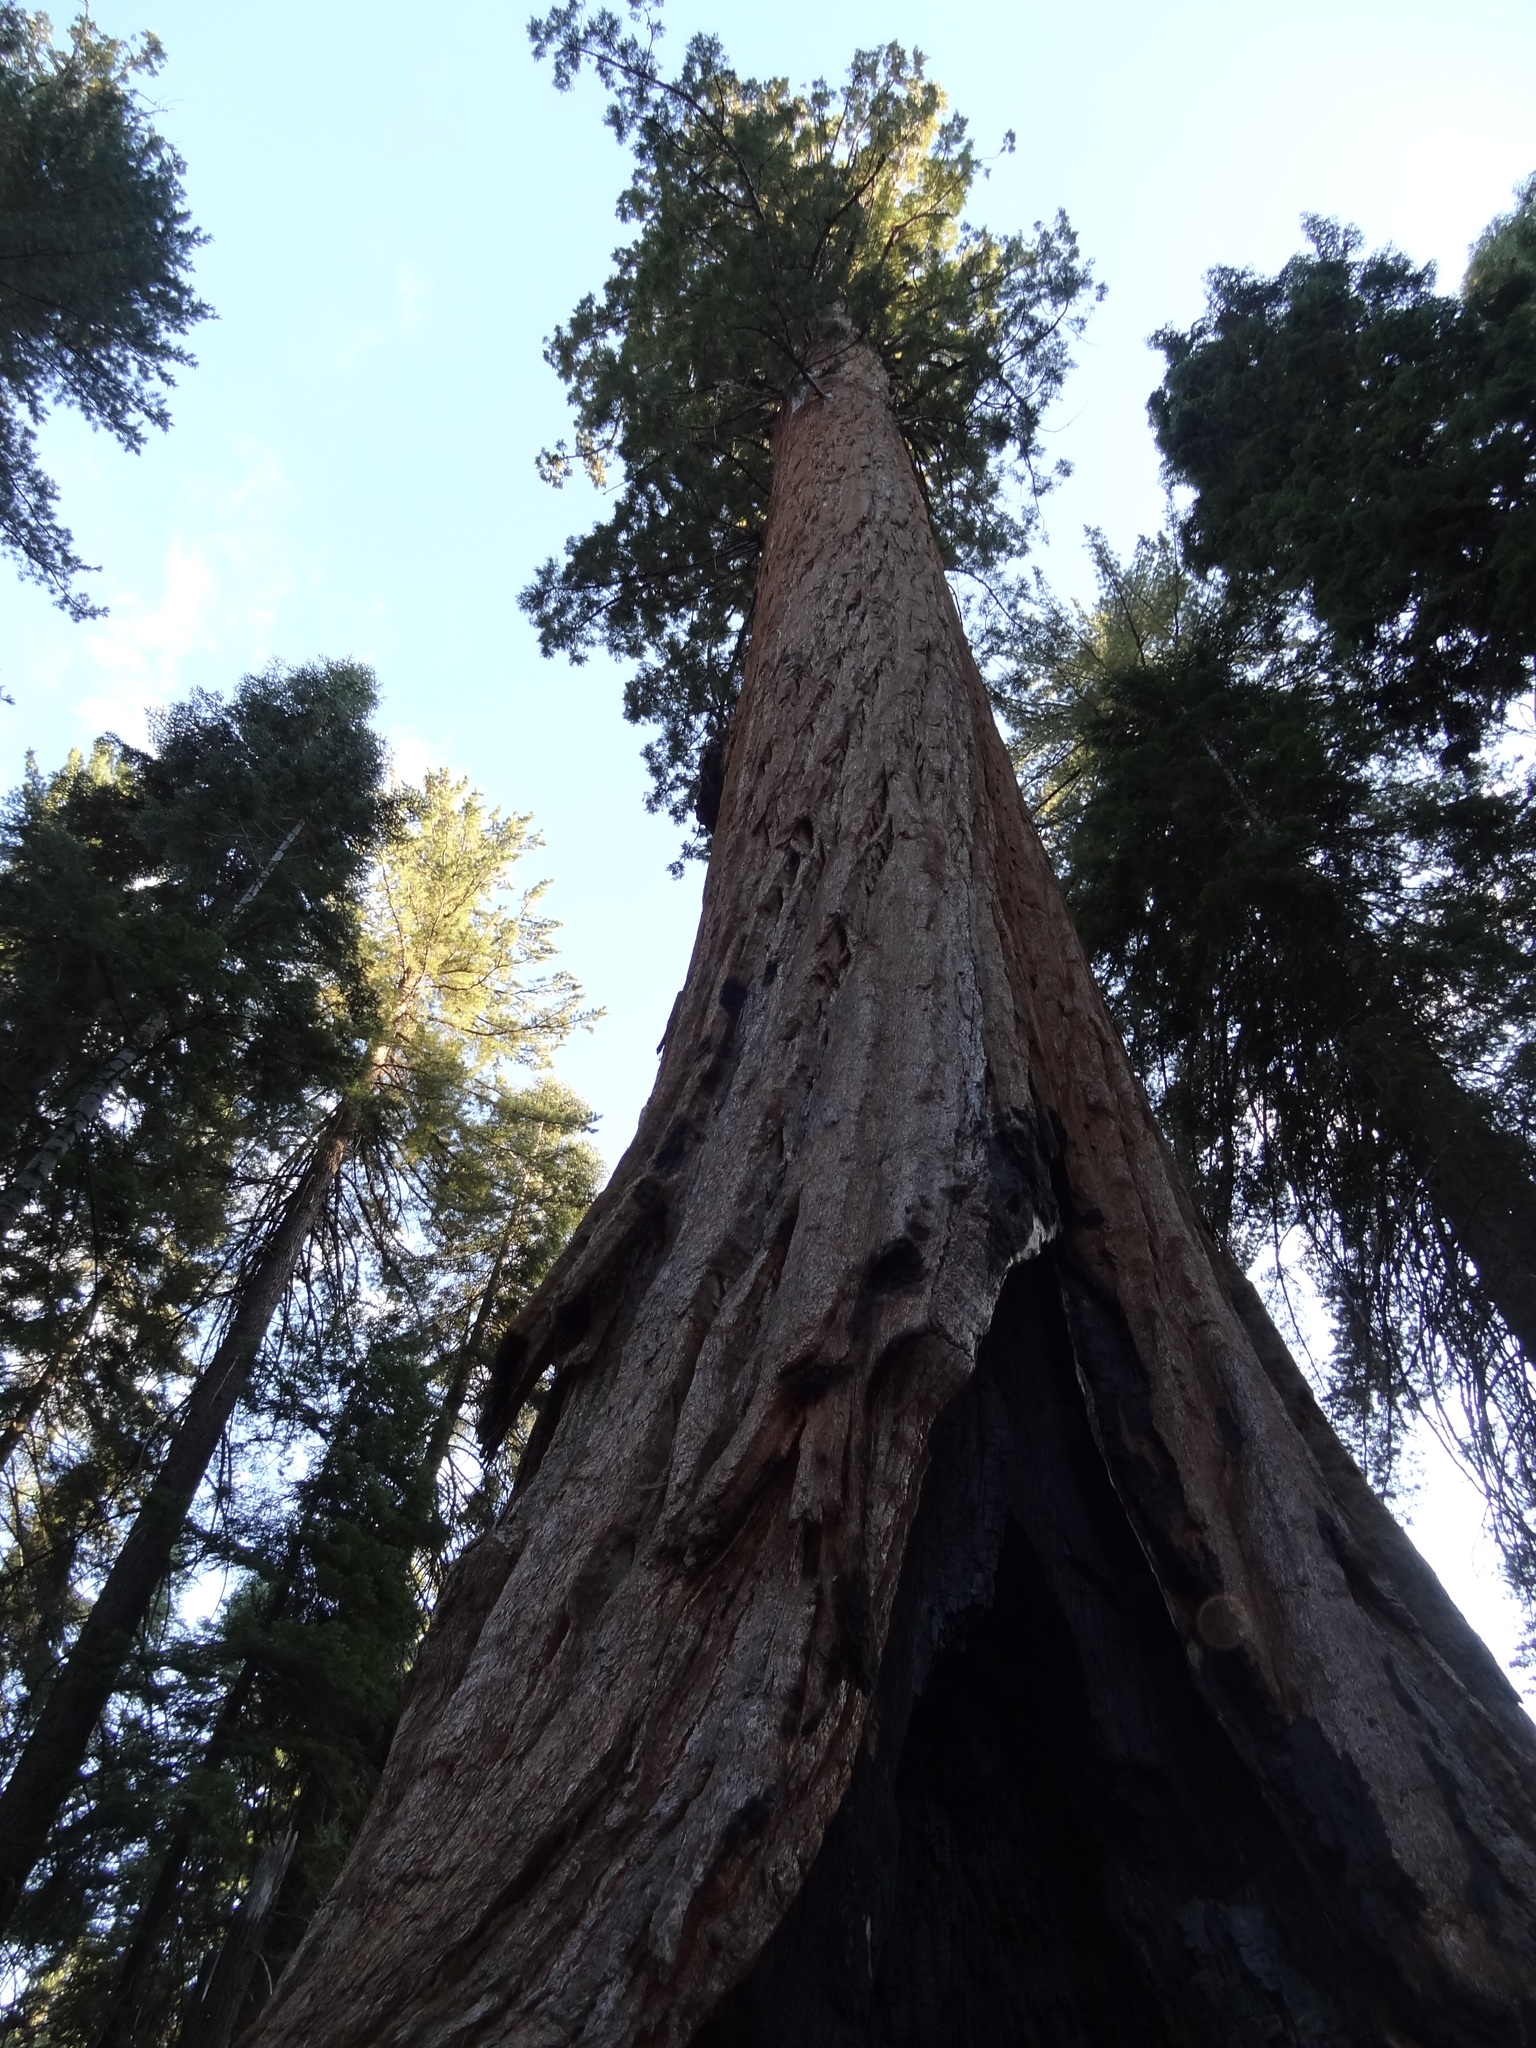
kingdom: Plantae
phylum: Tracheophyta
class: Pinopsida
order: Pinales
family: Cupressaceae
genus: Sequoiadendron
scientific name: Sequoiadendron giganteum
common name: Wellingtonia
